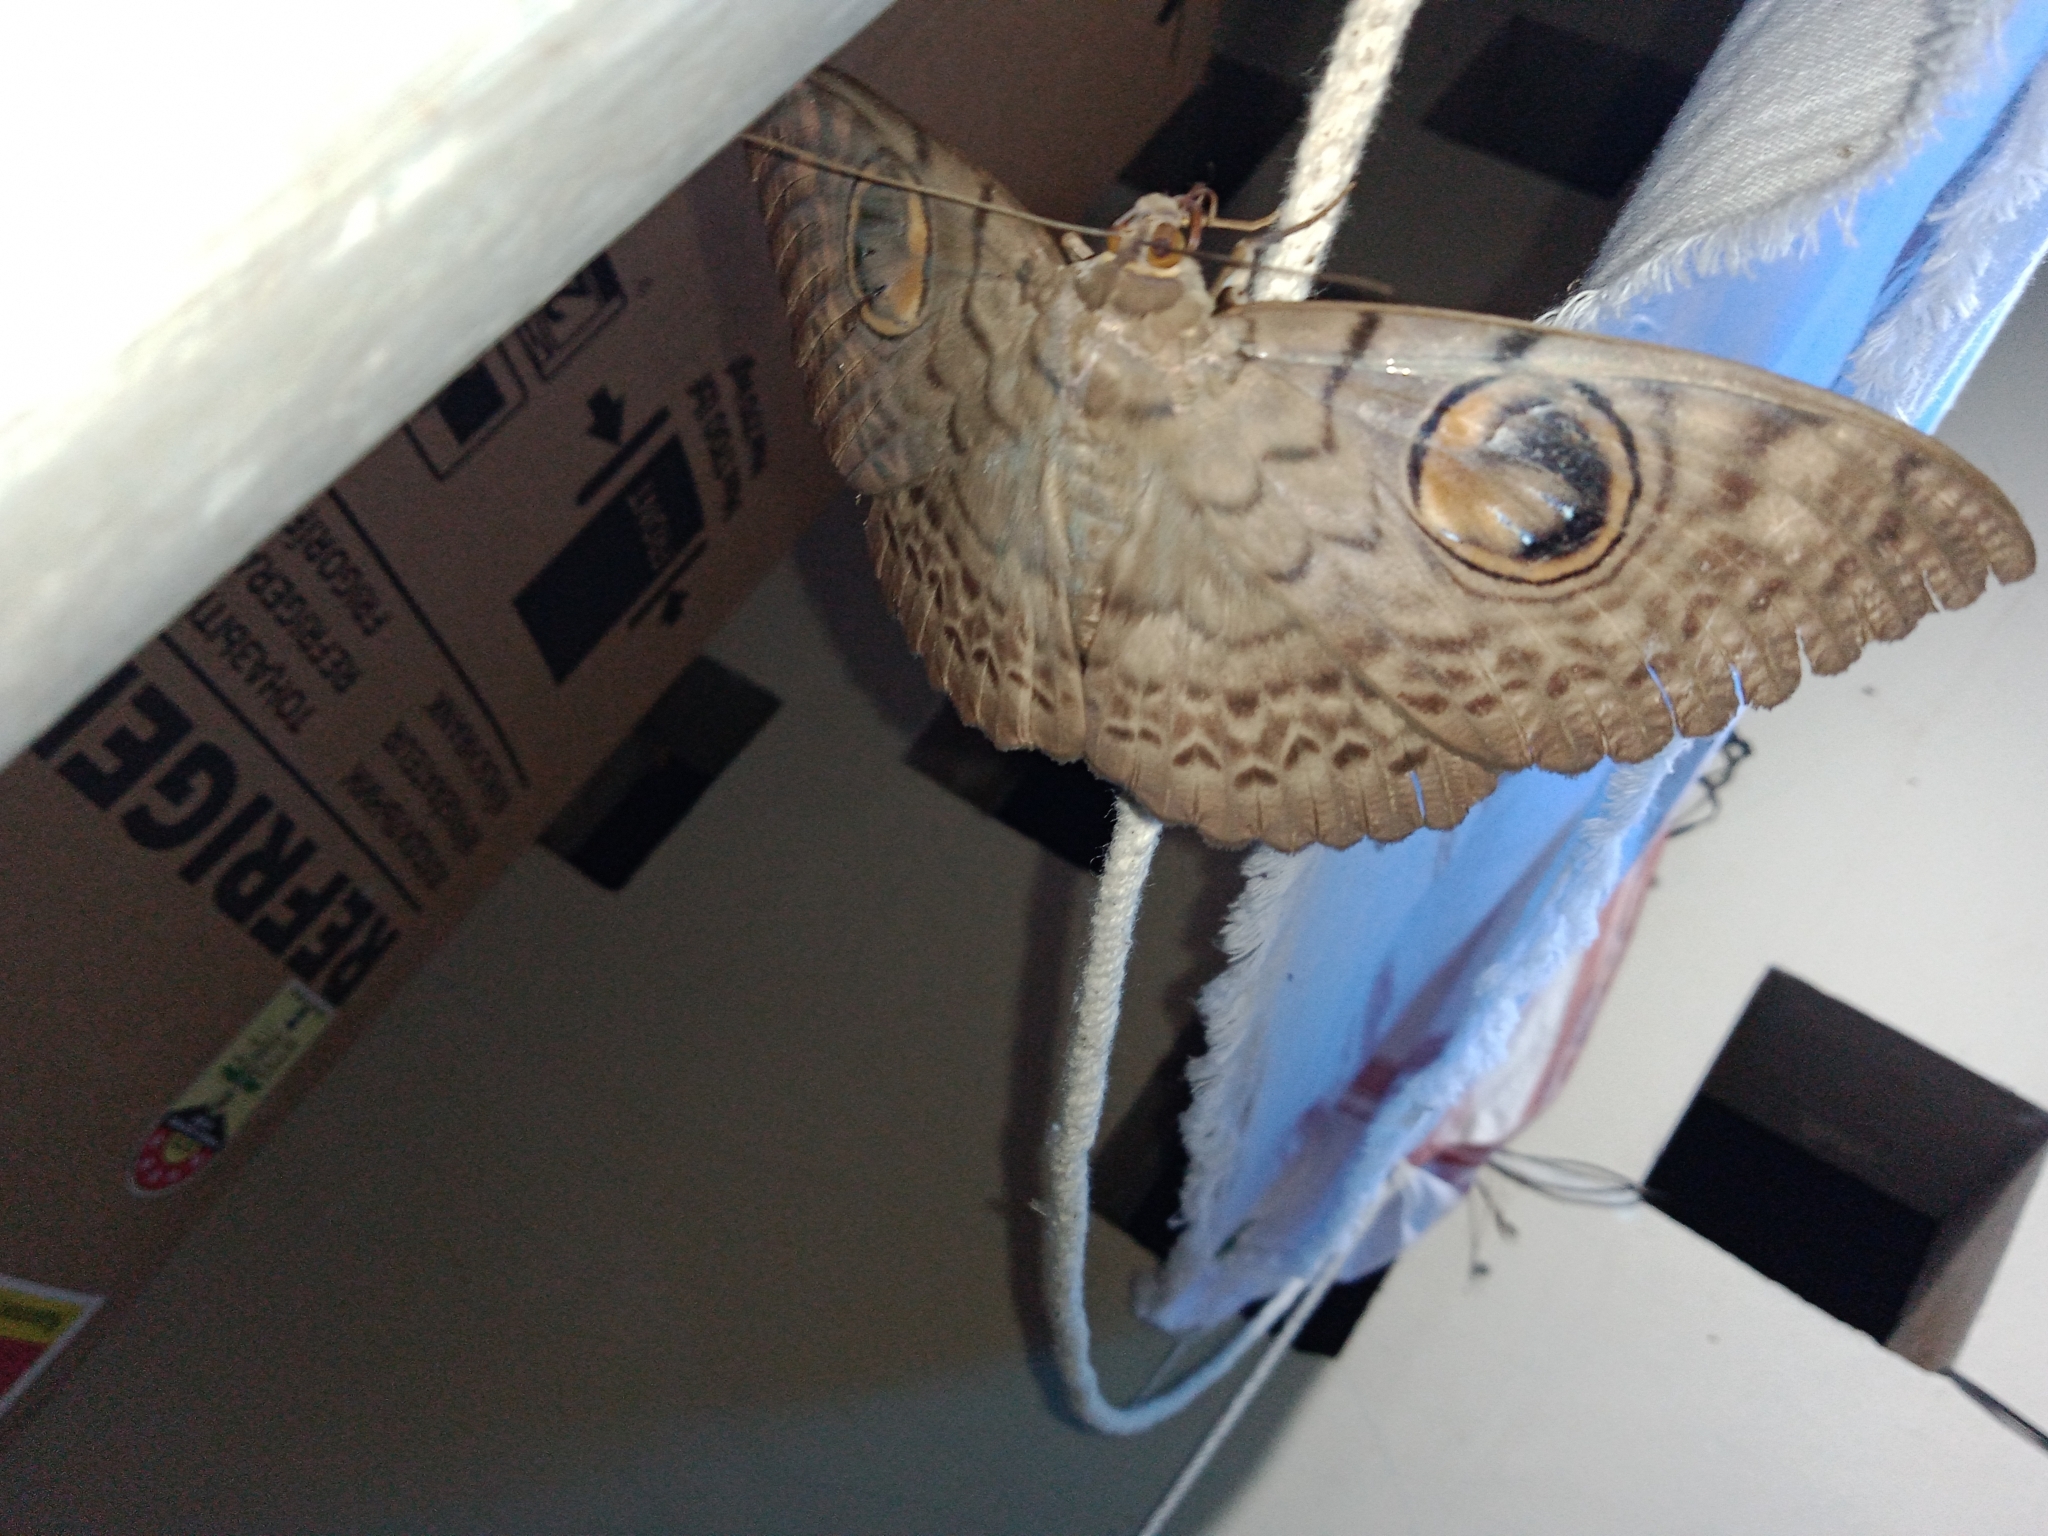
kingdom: Animalia
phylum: Arthropoda
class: Insecta
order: Lepidoptera
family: Erebidae
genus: Erebus
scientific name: Erebus macrops
